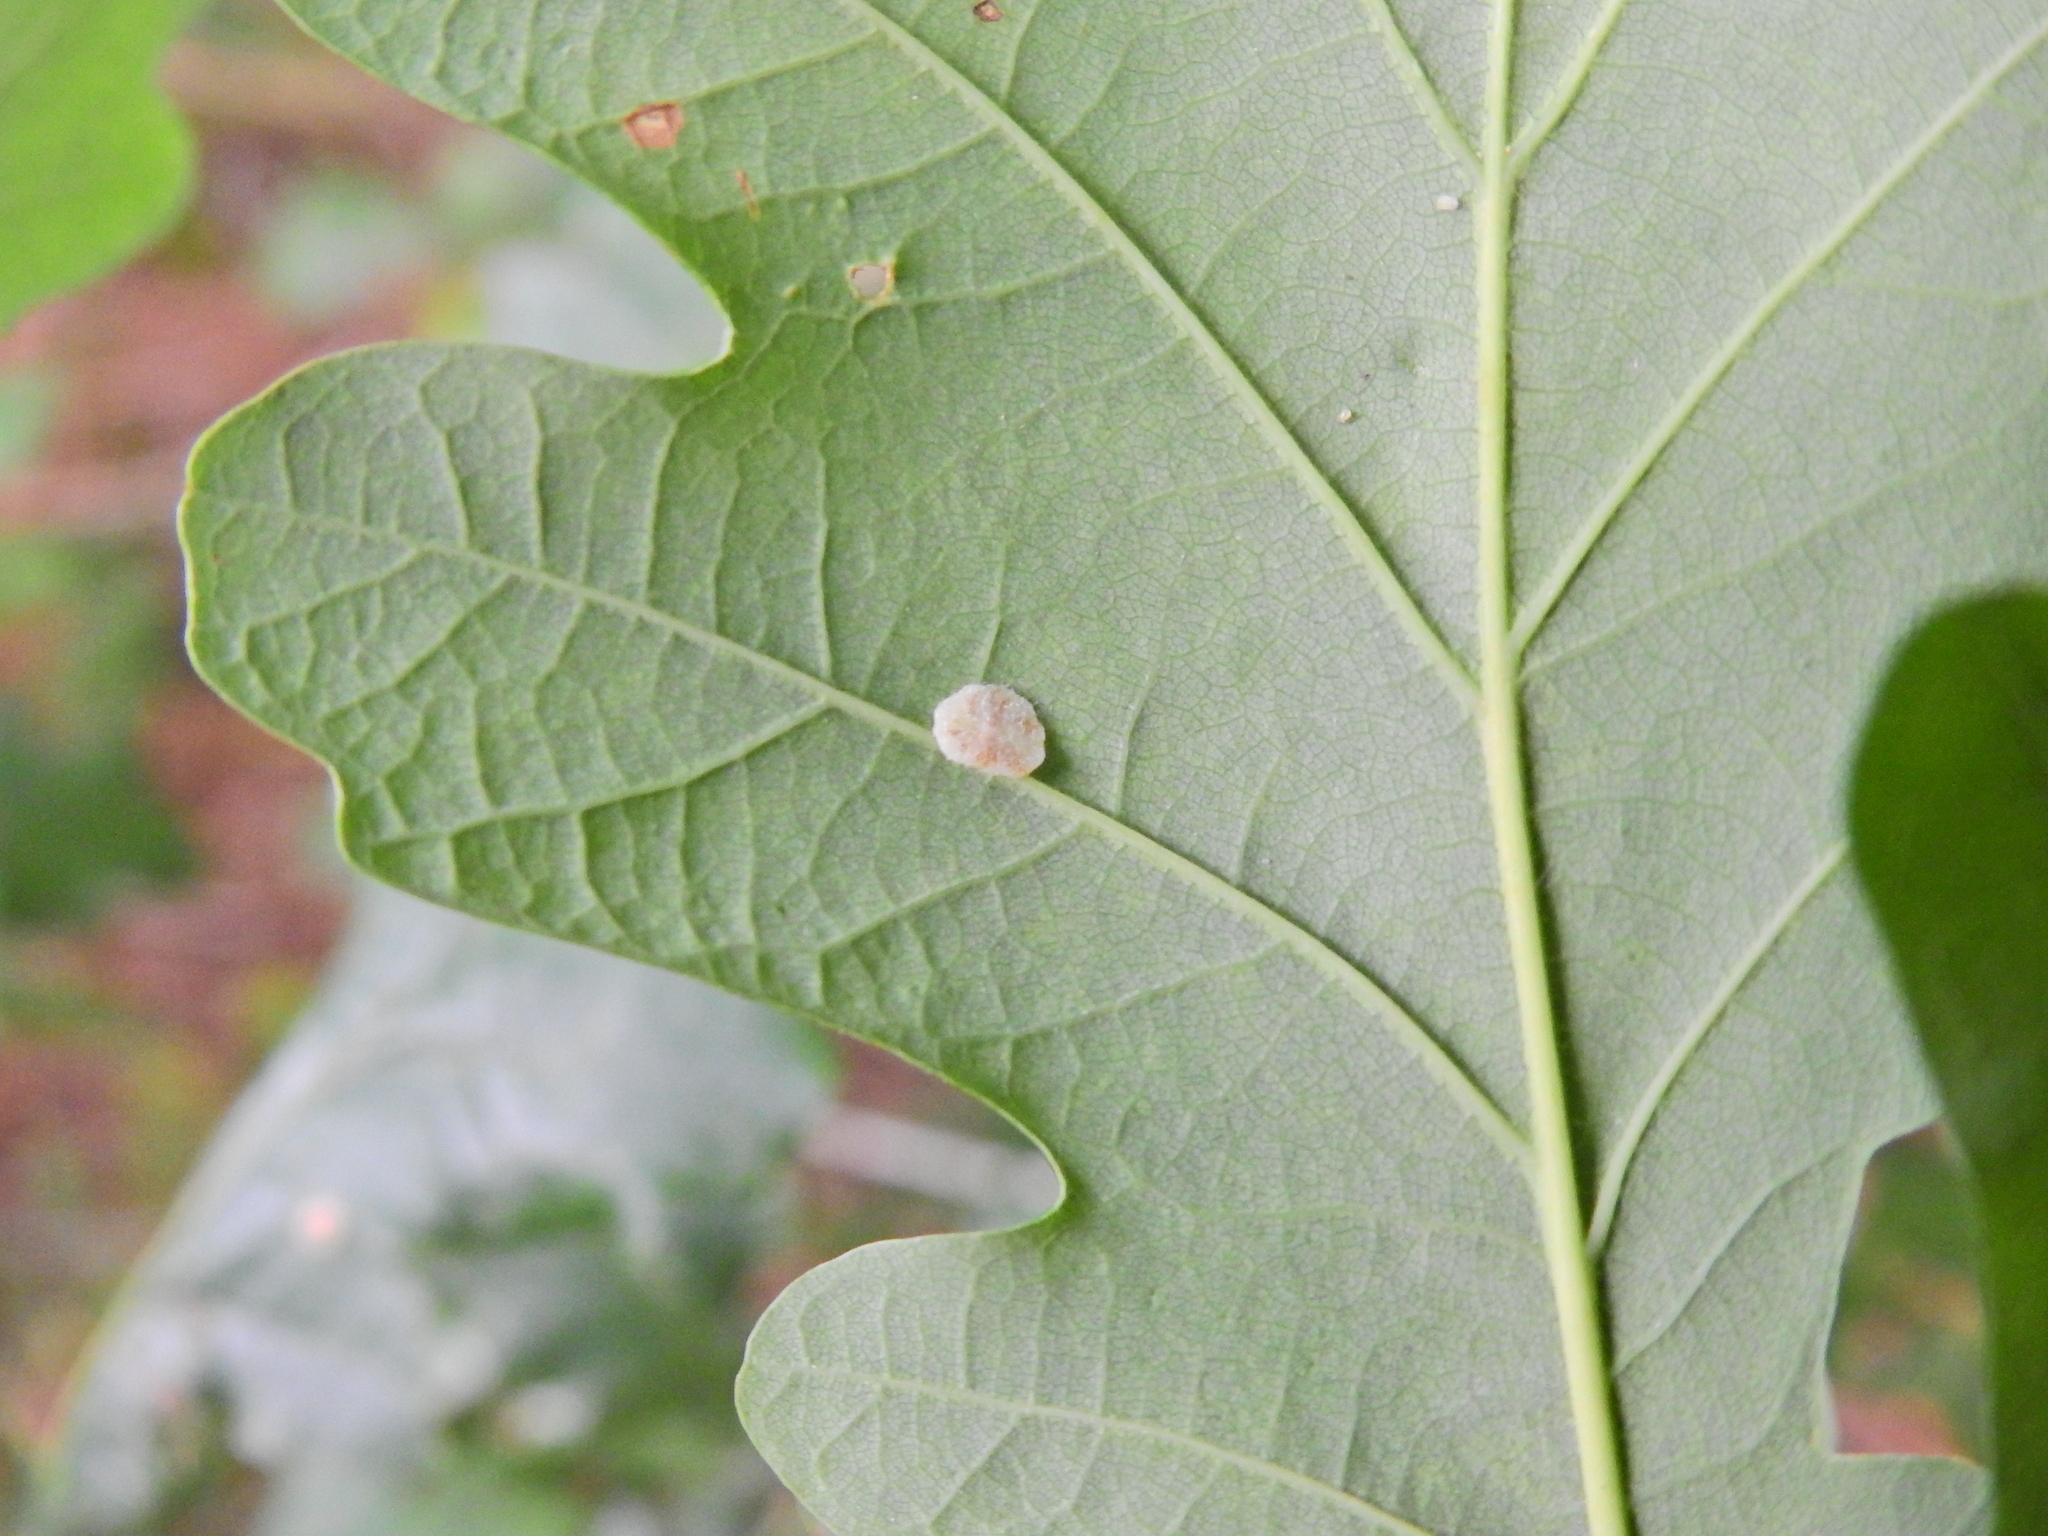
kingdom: Animalia
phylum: Arthropoda
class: Insecta
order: Hymenoptera
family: Cynipidae
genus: Neuroterus
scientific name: Neuroterus albipes
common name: Smooth spangle gall
